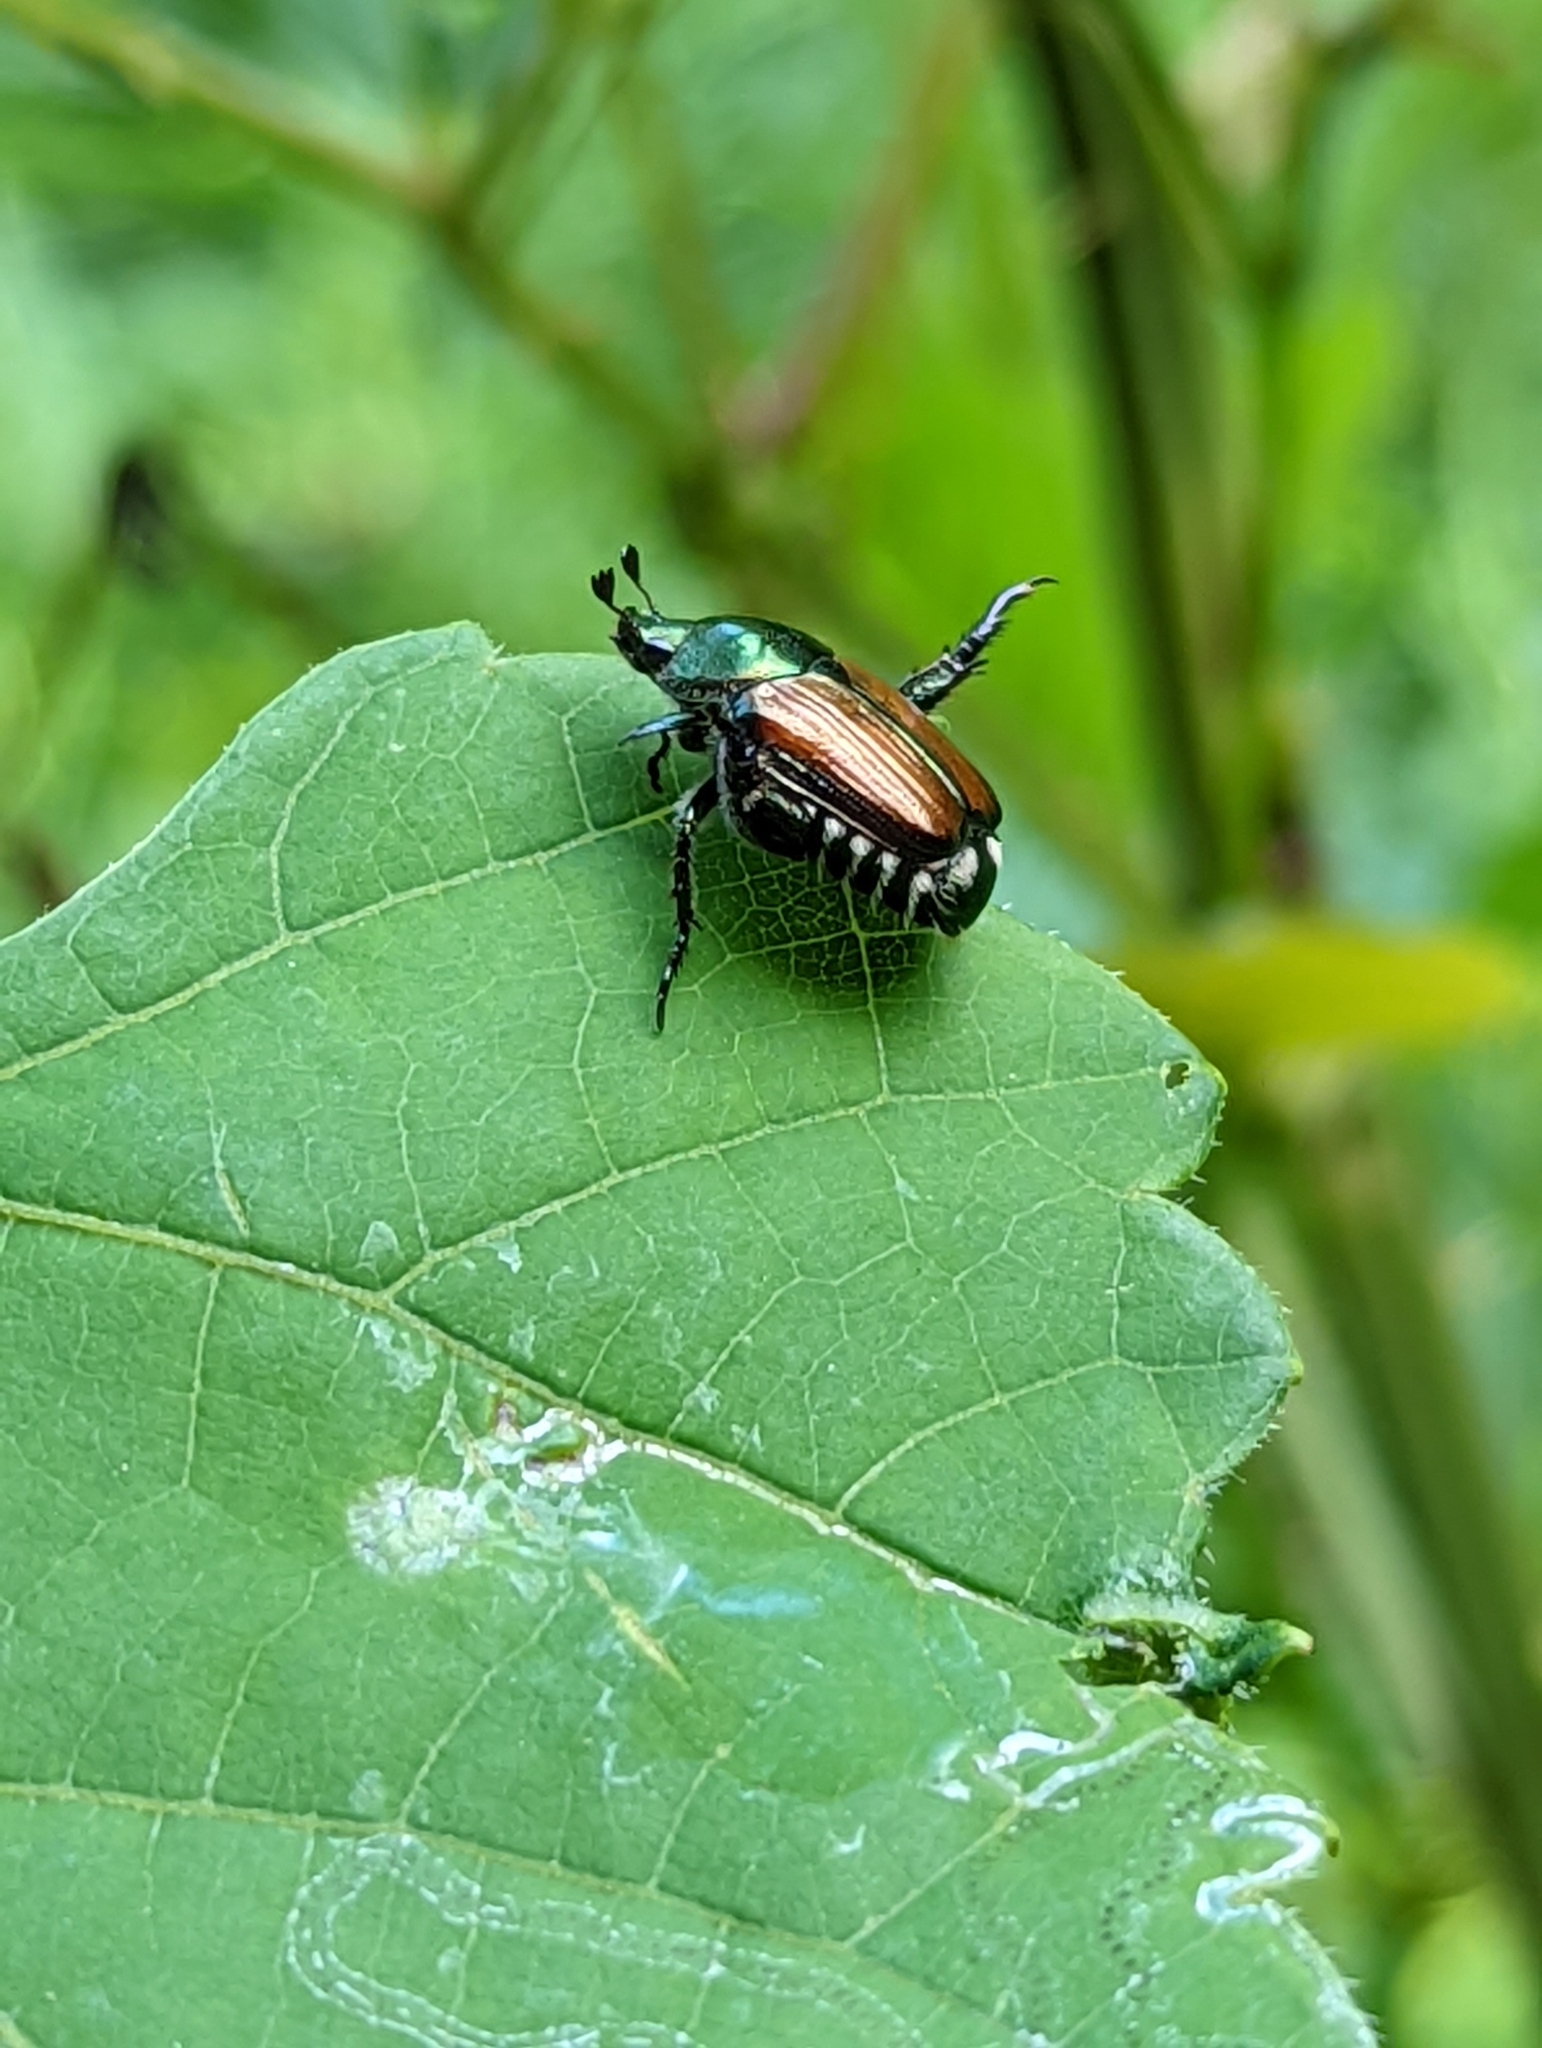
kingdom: Animalia
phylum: Arthropoda
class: Insecta
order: Coleoptera
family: Scarabaeidae
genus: Popillia
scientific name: Popillia japonica
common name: Japanese beetle
